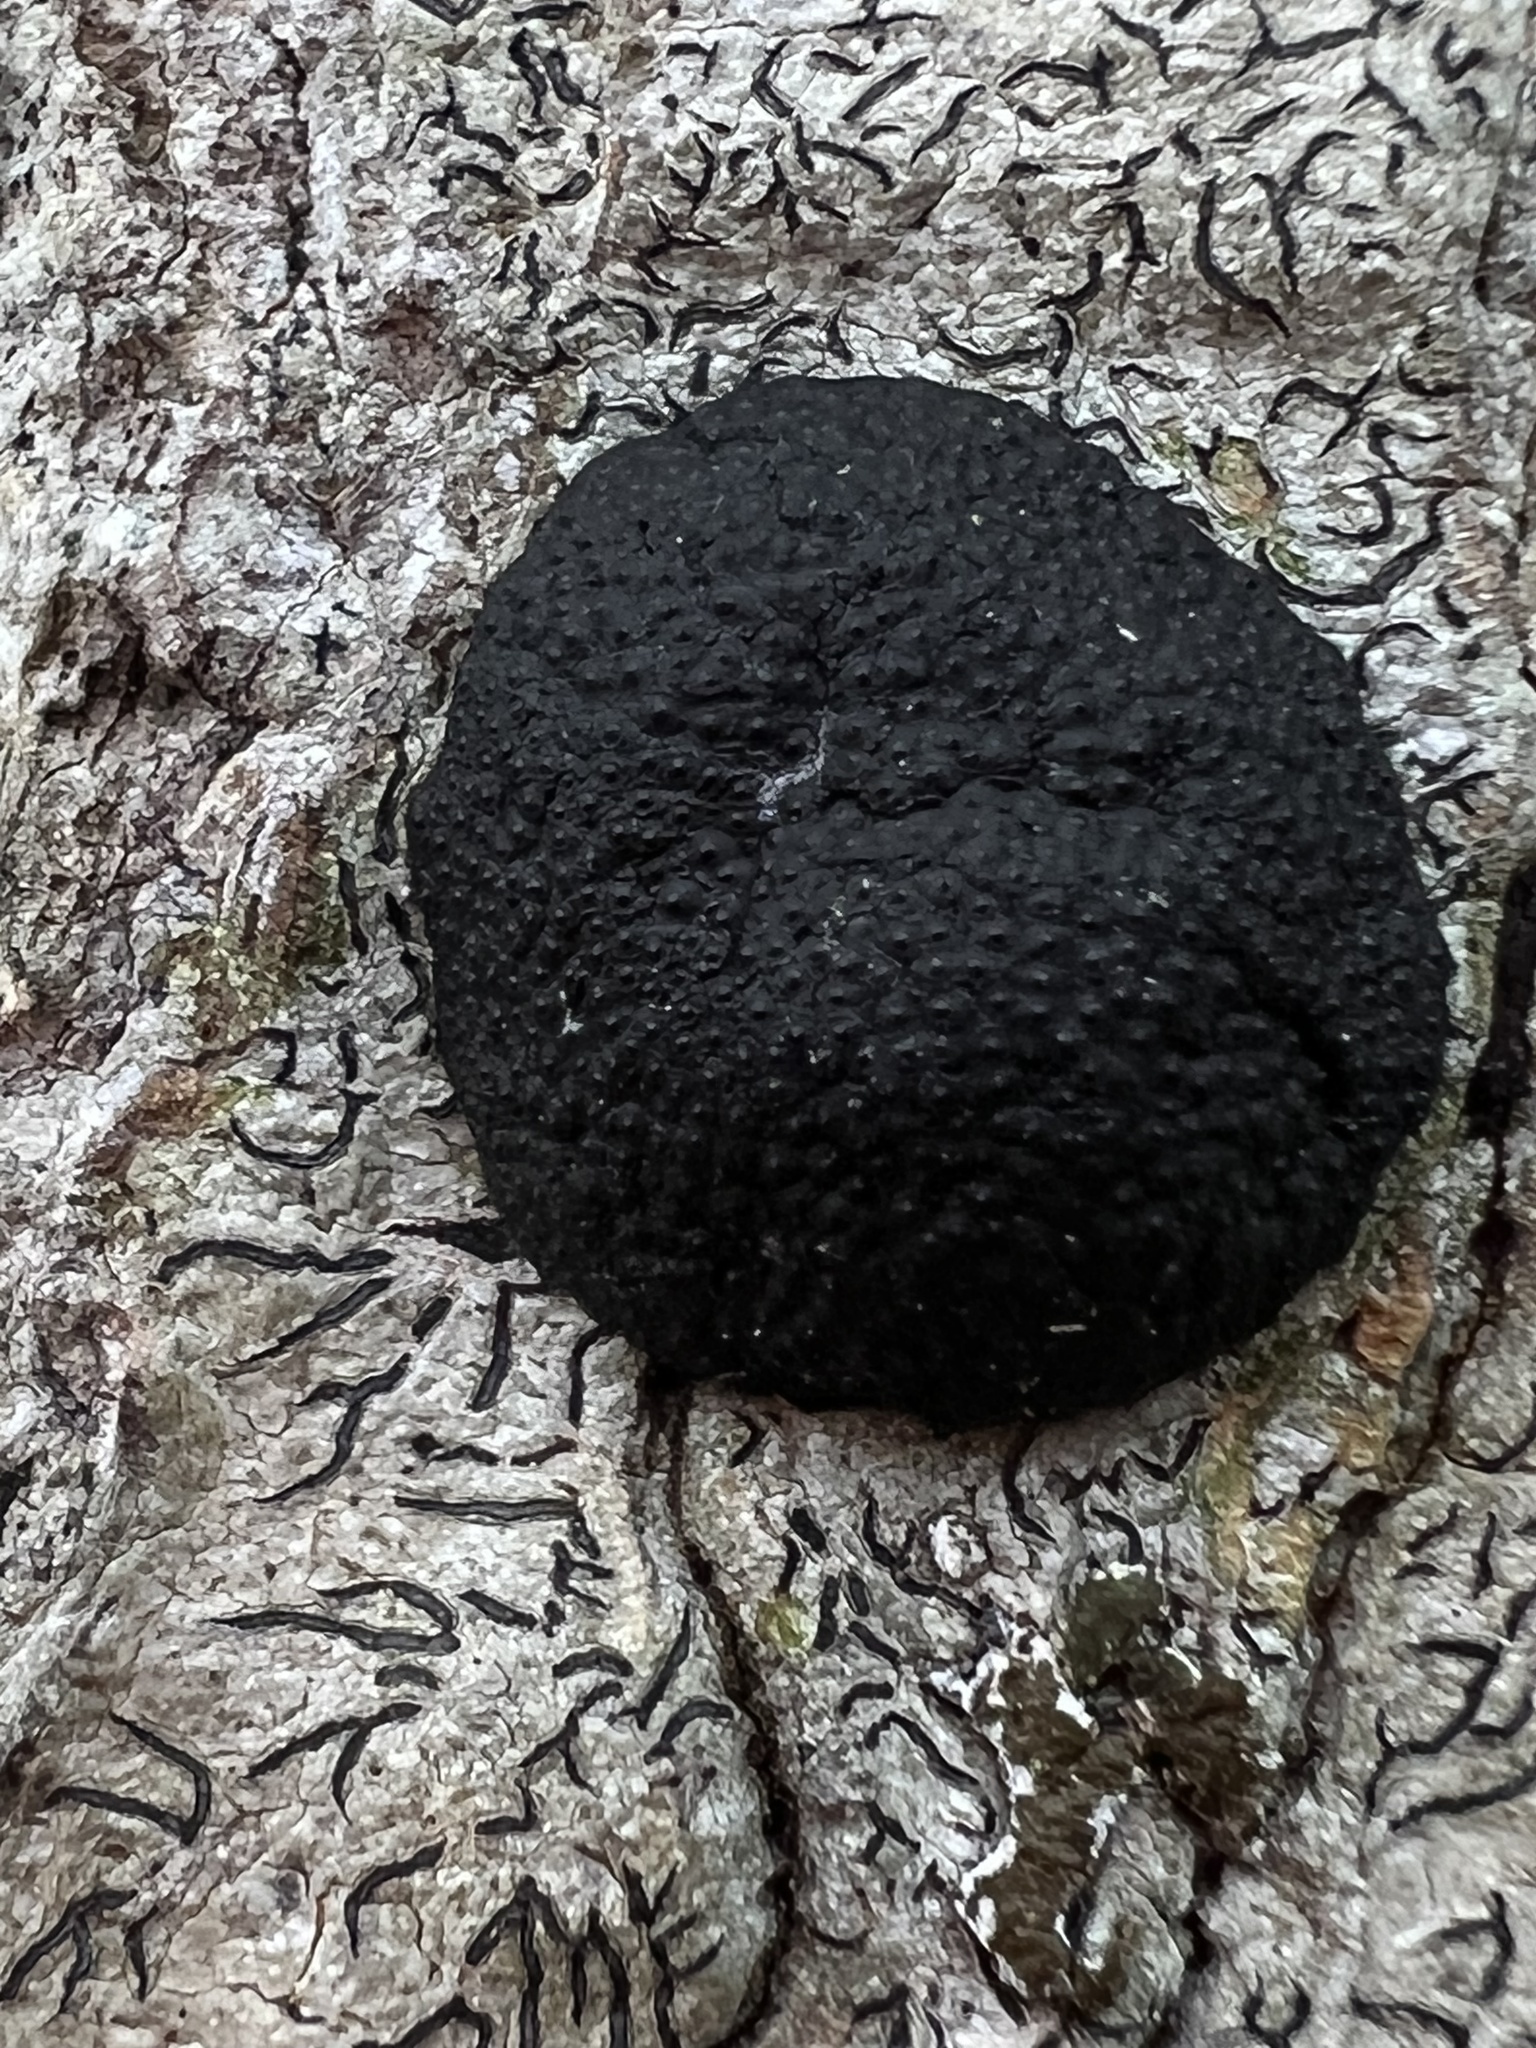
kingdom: Fungi
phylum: Ascomycota
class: Lecanoromycetes
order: Ostropales
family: Graphidaceae
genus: Graphis
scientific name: Graphis scripta
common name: Script lichen
